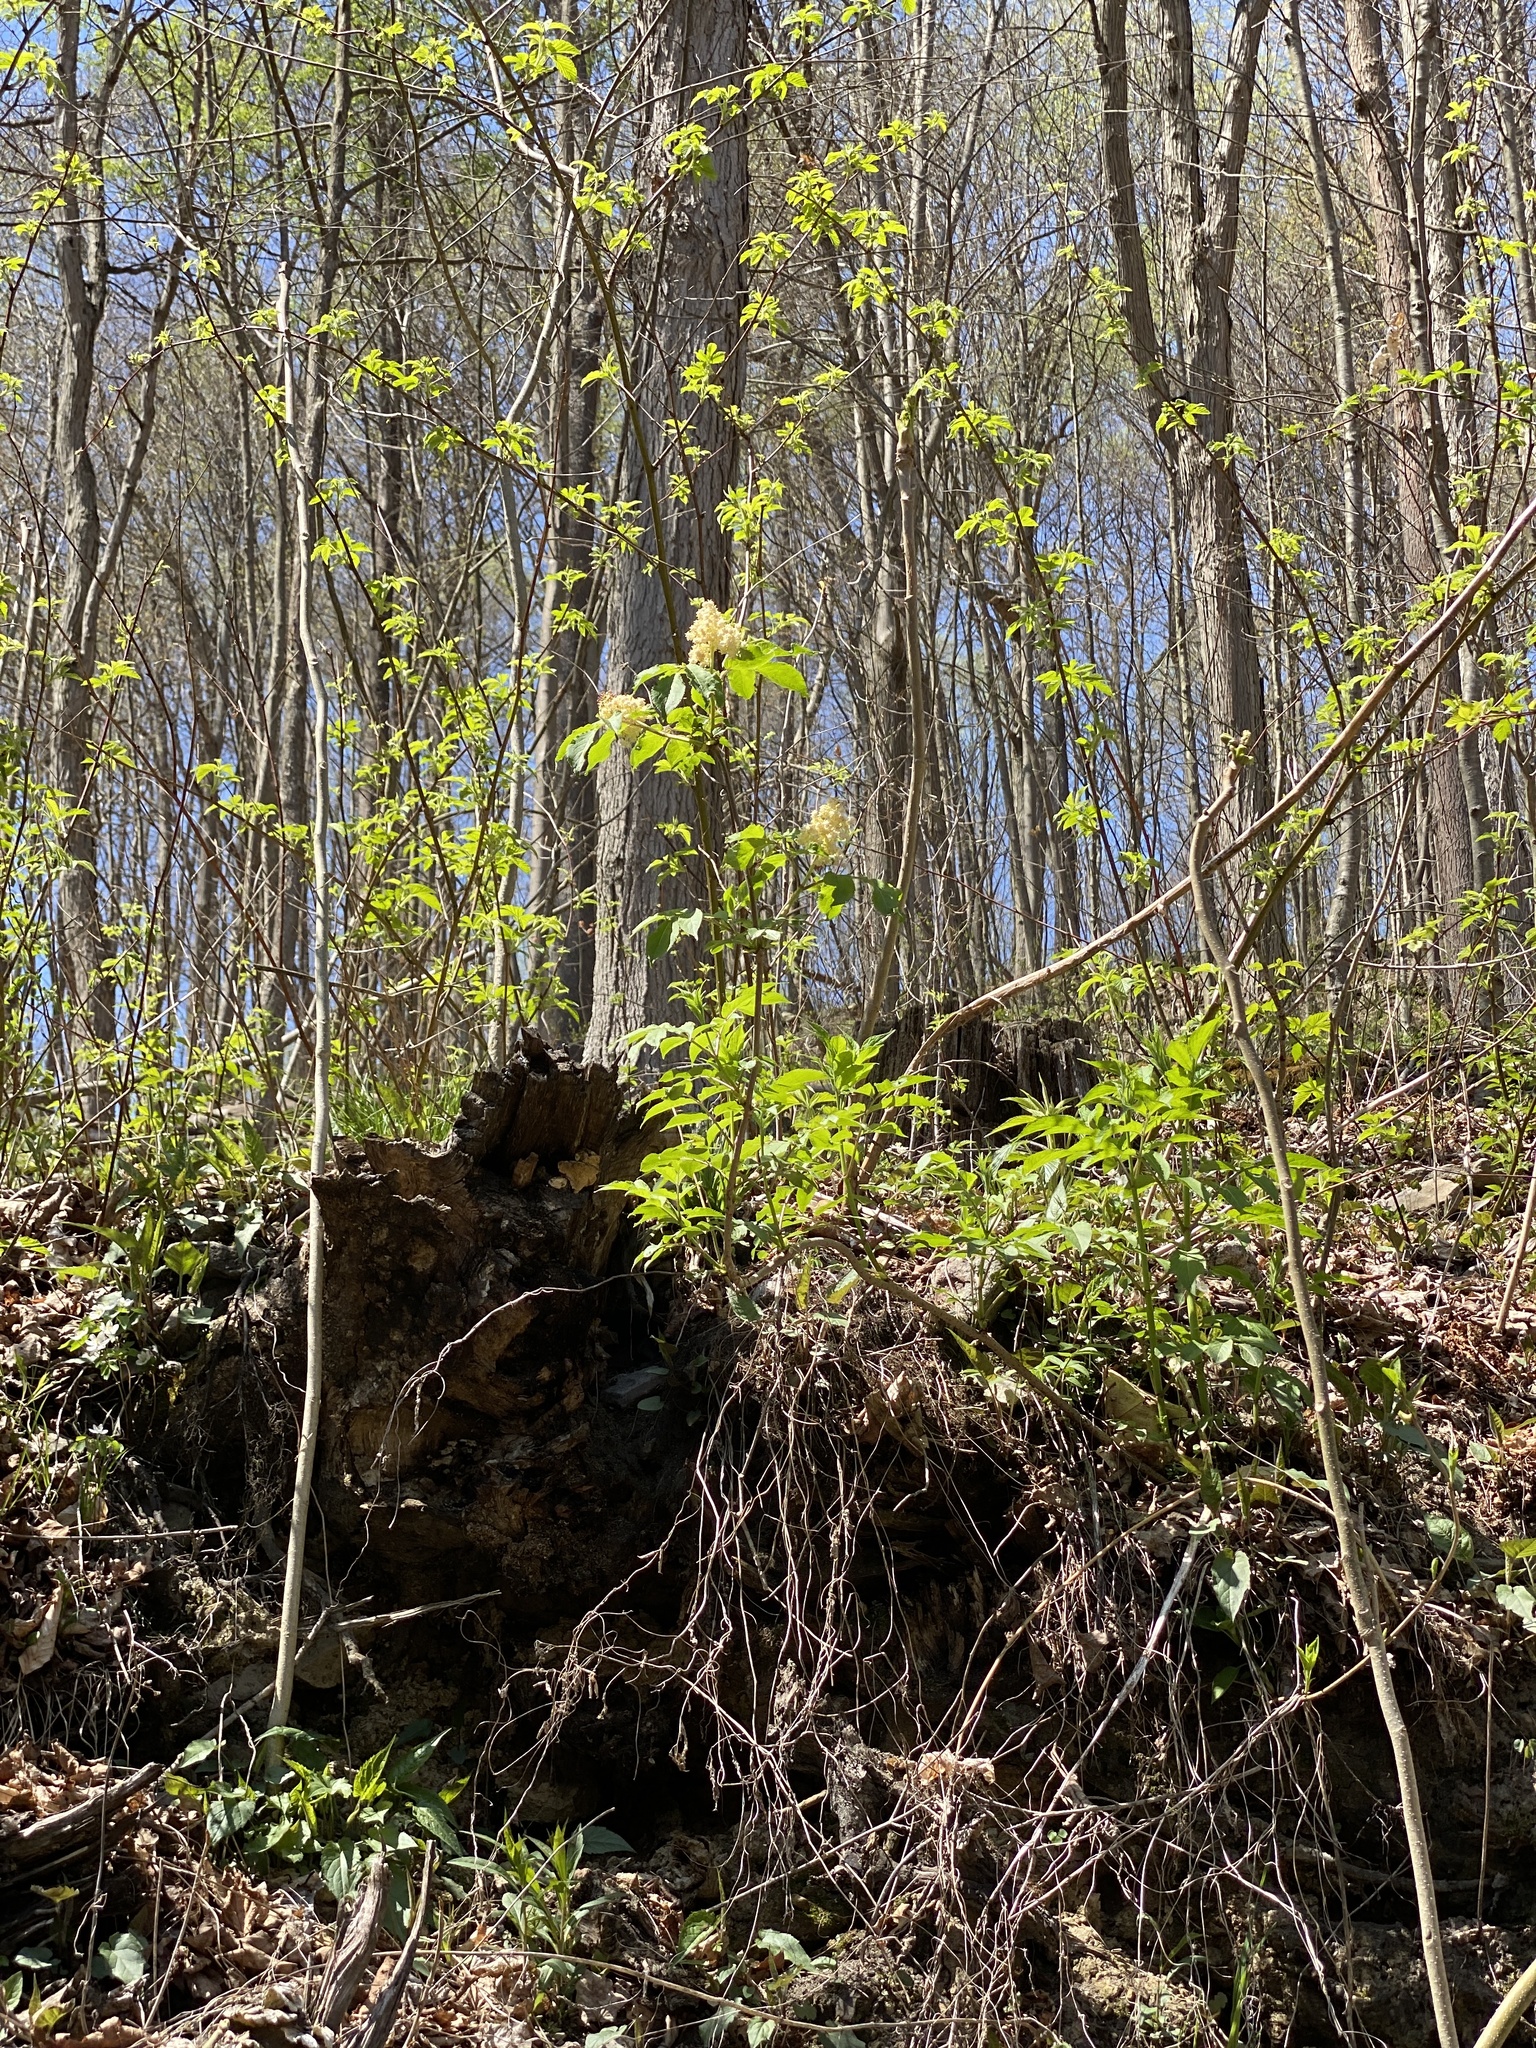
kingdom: Plantae
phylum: Tracheophyta
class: Magnoliopsida
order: Dipsacales
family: Viburnaceae
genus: Sambucus
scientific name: Sambucus racemosa
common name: Red-berried elder
